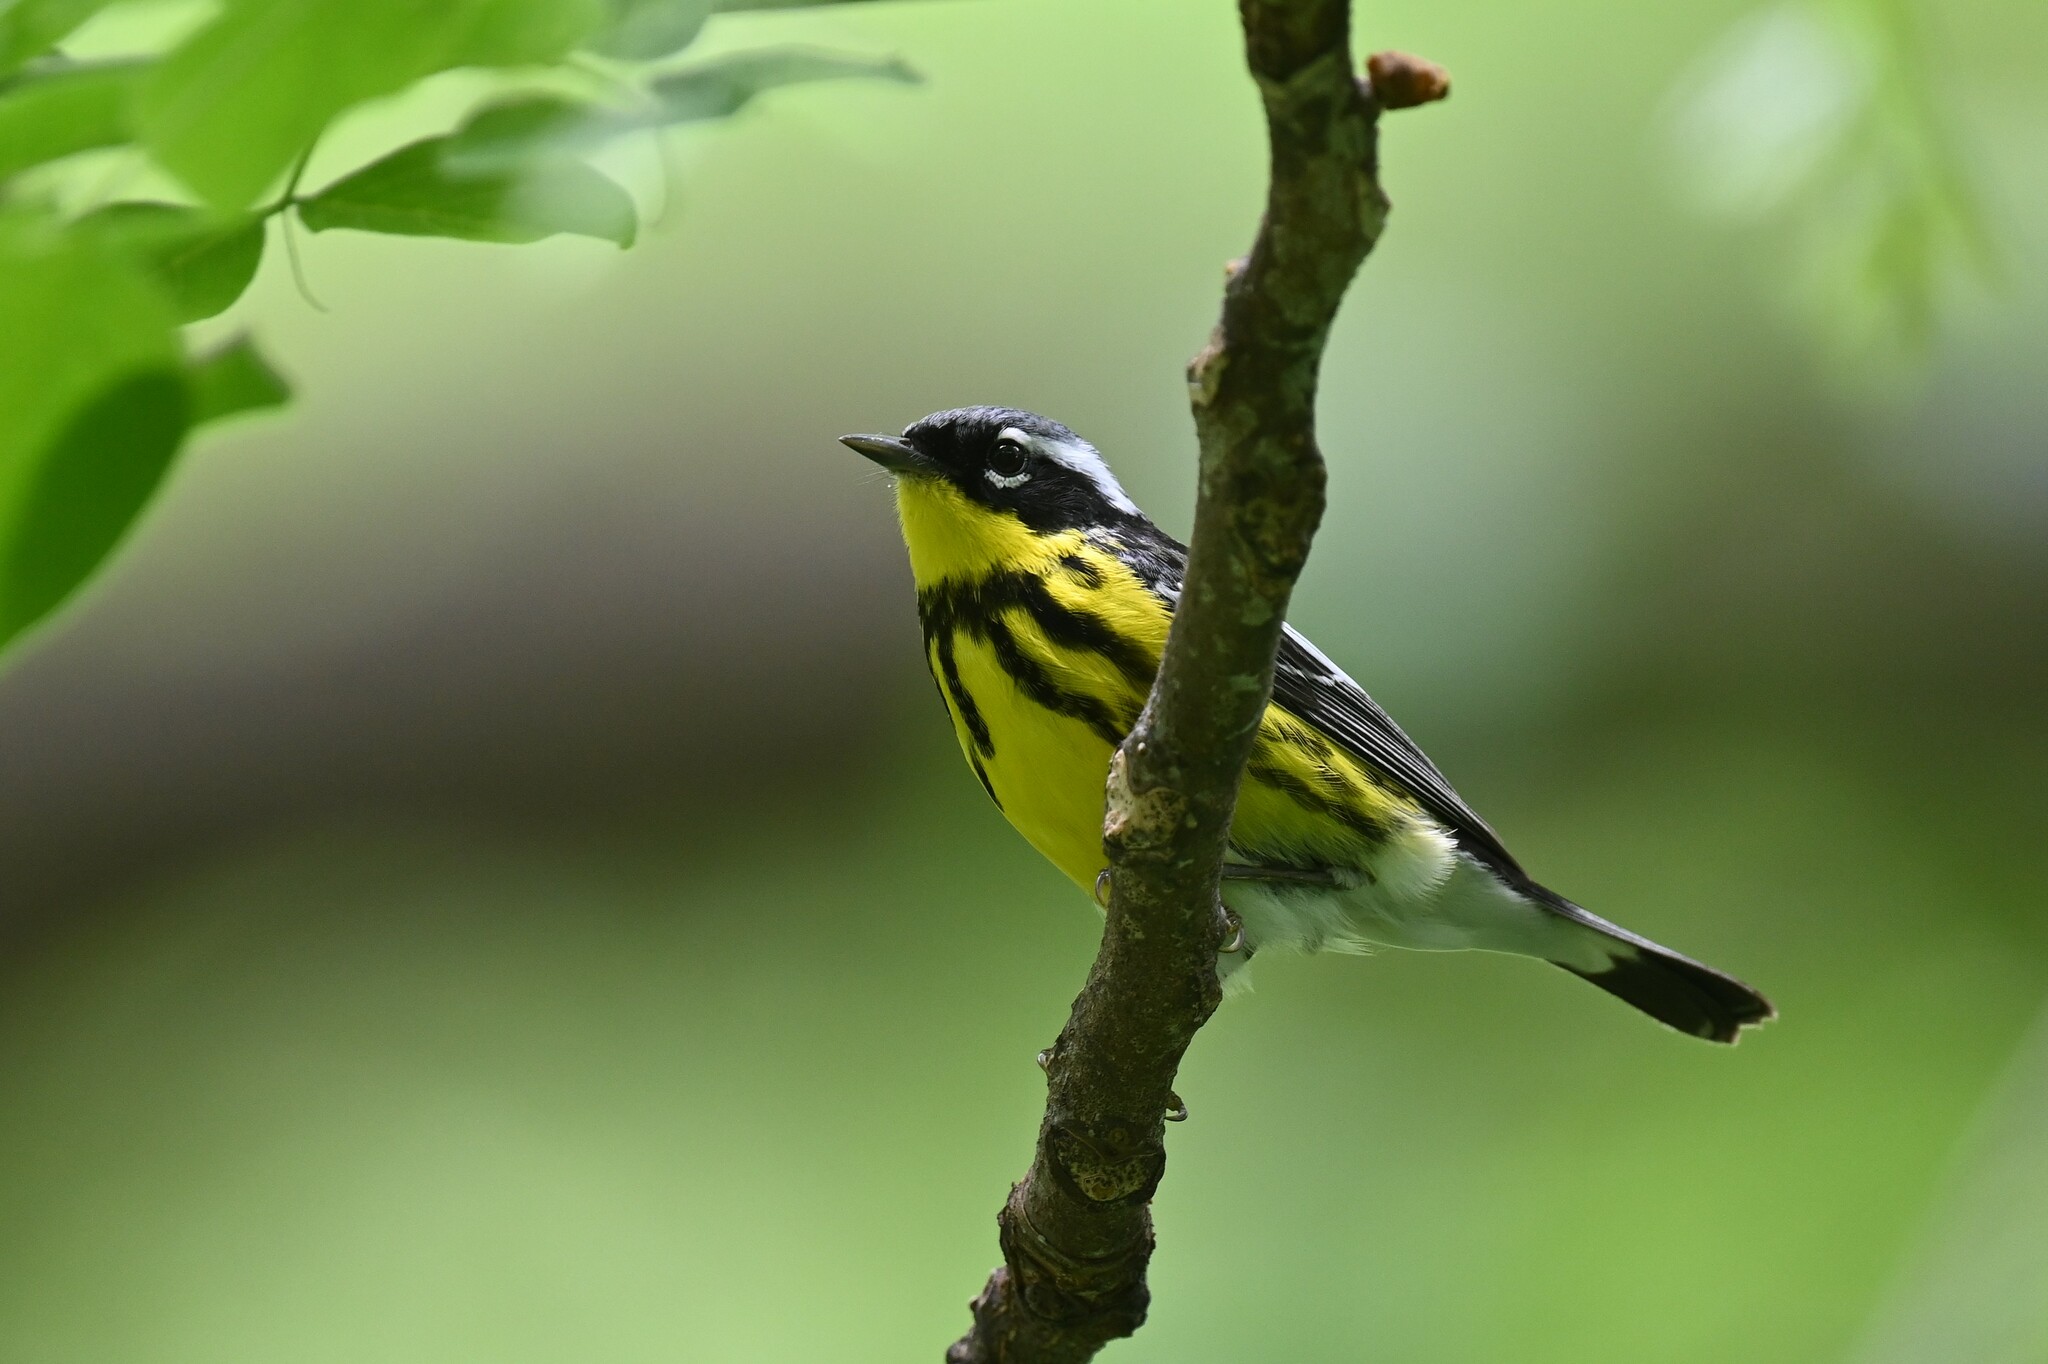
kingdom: Animalia
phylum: Chordata
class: Aves
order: Passeriformes
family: Parulidae
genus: Setophaga
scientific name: Setophaga magnolia
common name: Magnolia warbler
